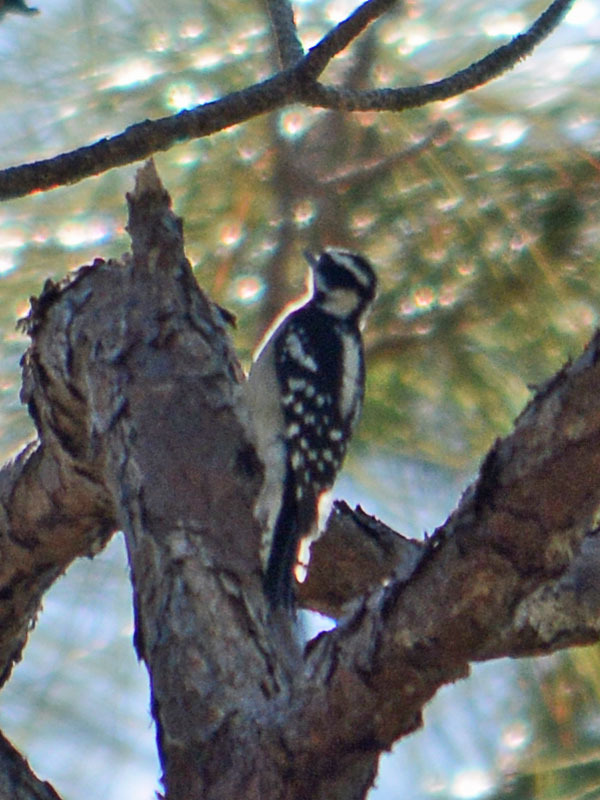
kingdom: Animalia
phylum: Chordata
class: Aves
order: Piciformes
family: Picidae
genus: Dryobates
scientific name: Dryobates pubescens
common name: Downy woodpecker
